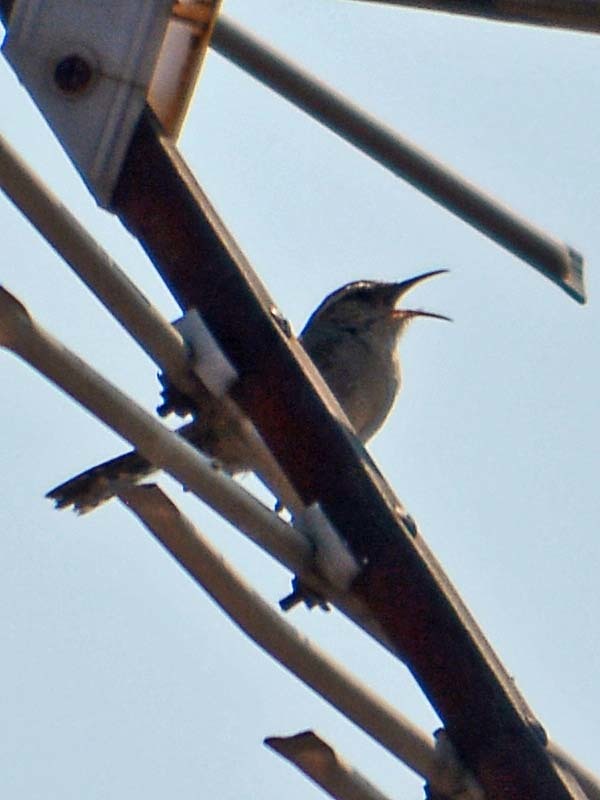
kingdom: Animalia
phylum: Chordata
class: Aves
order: Passeriformes
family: Troglodytidae
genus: Thryomanes
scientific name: Thryomanes bewickii
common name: Bewick's wren
